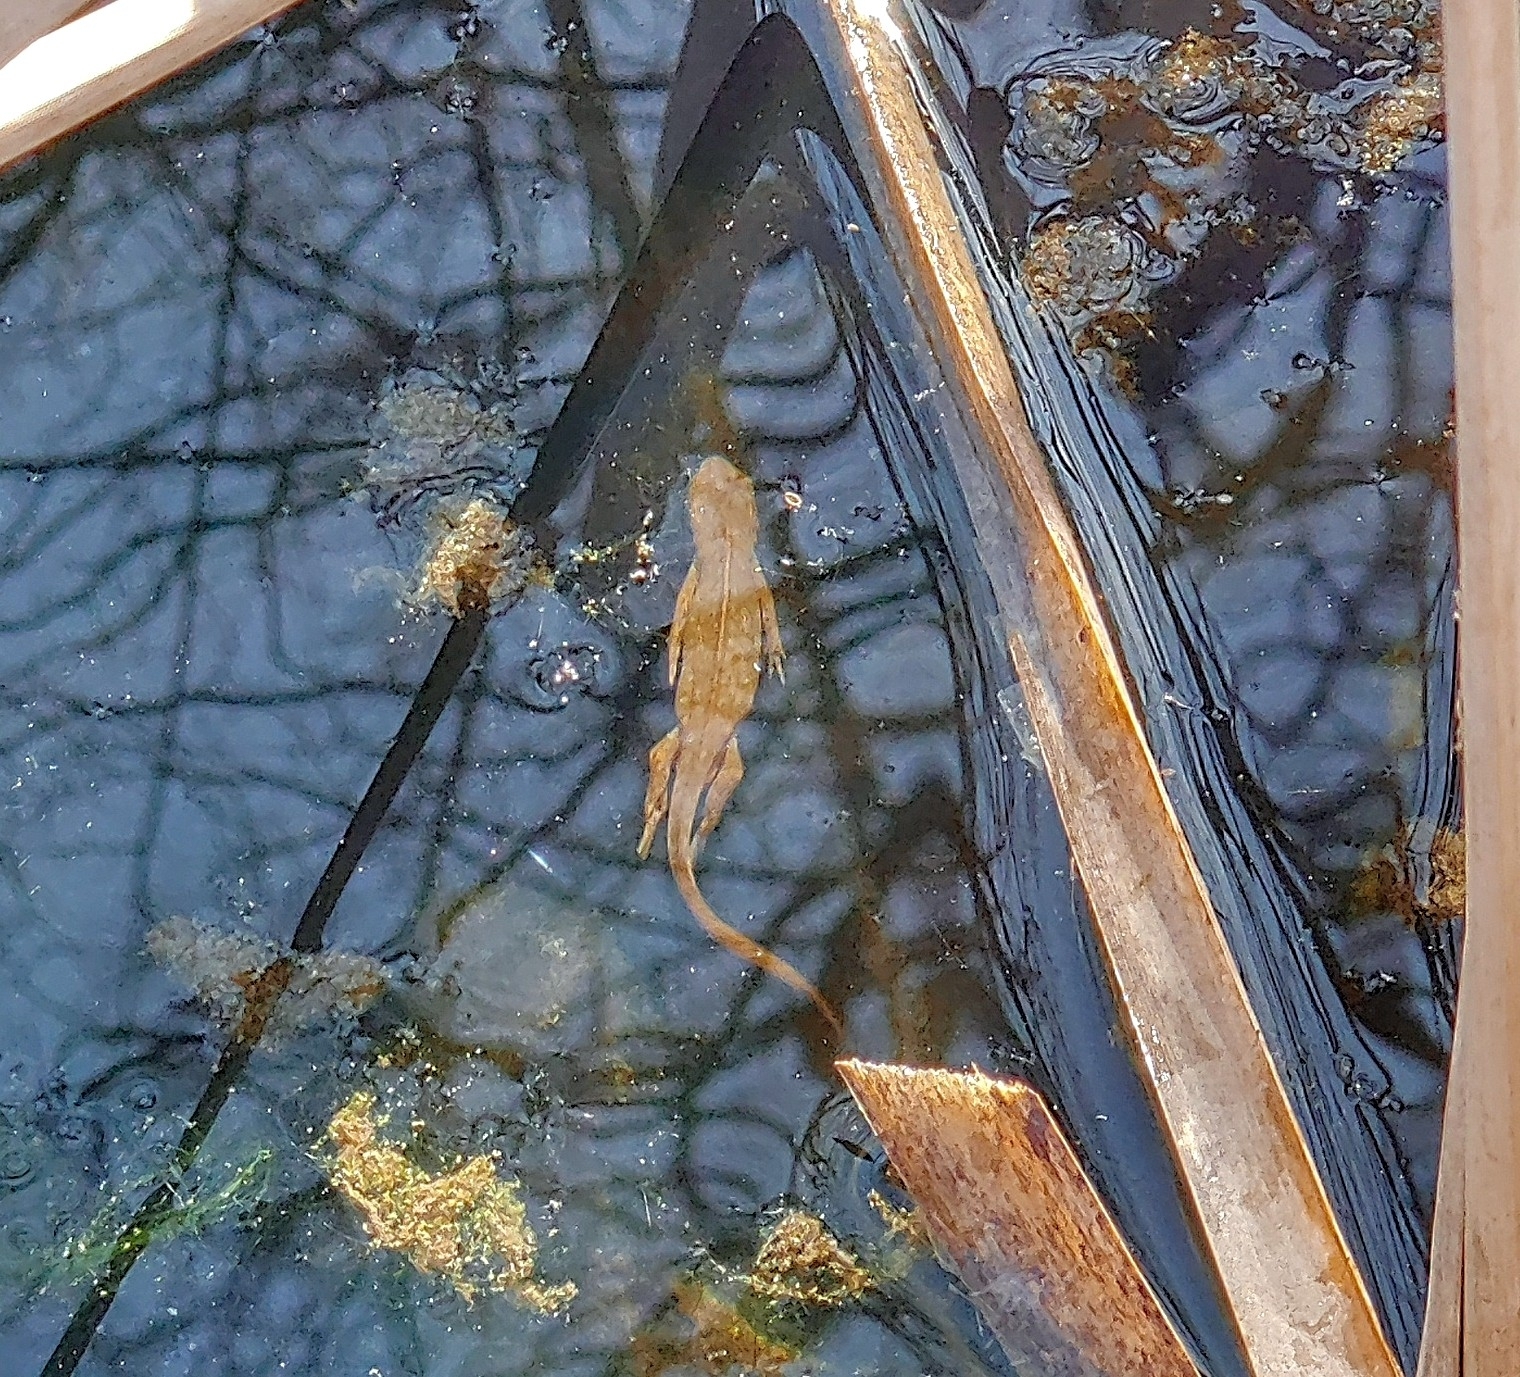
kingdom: Animalia
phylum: Chordata
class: Amphibia
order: Caudata
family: Salamandridae
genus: Notophthalmus
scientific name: Notophthalmus viridescens
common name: Eastern newt
